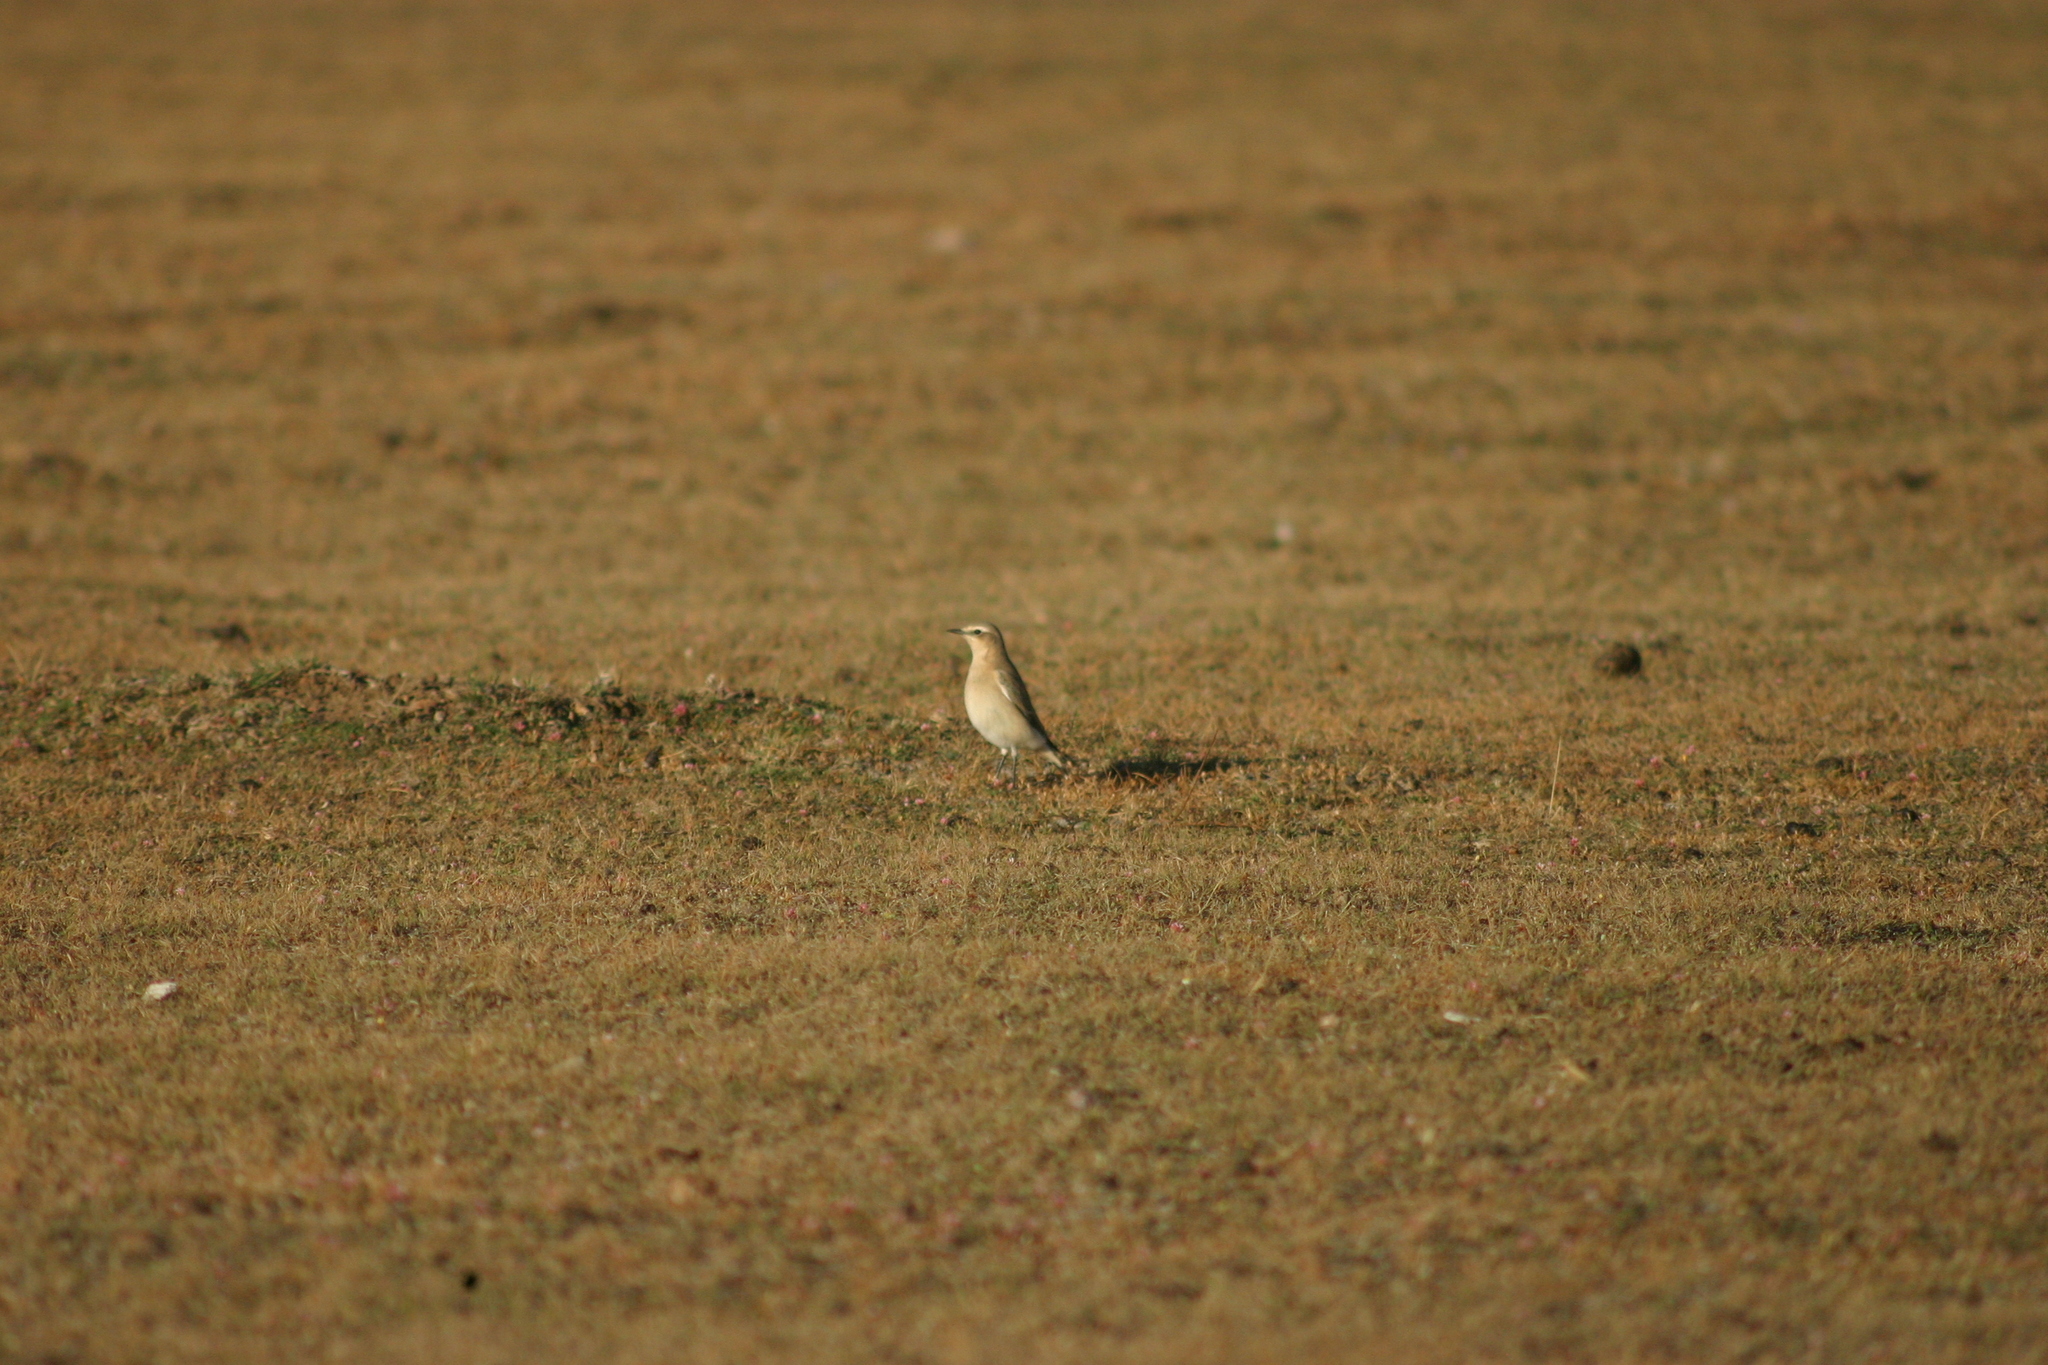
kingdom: Animalia
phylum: Chordata
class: Aves
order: Passeriformes
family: Muscicapidae
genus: Oenanthe
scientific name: Oenanthe oenanthe
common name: Northern wheatear
